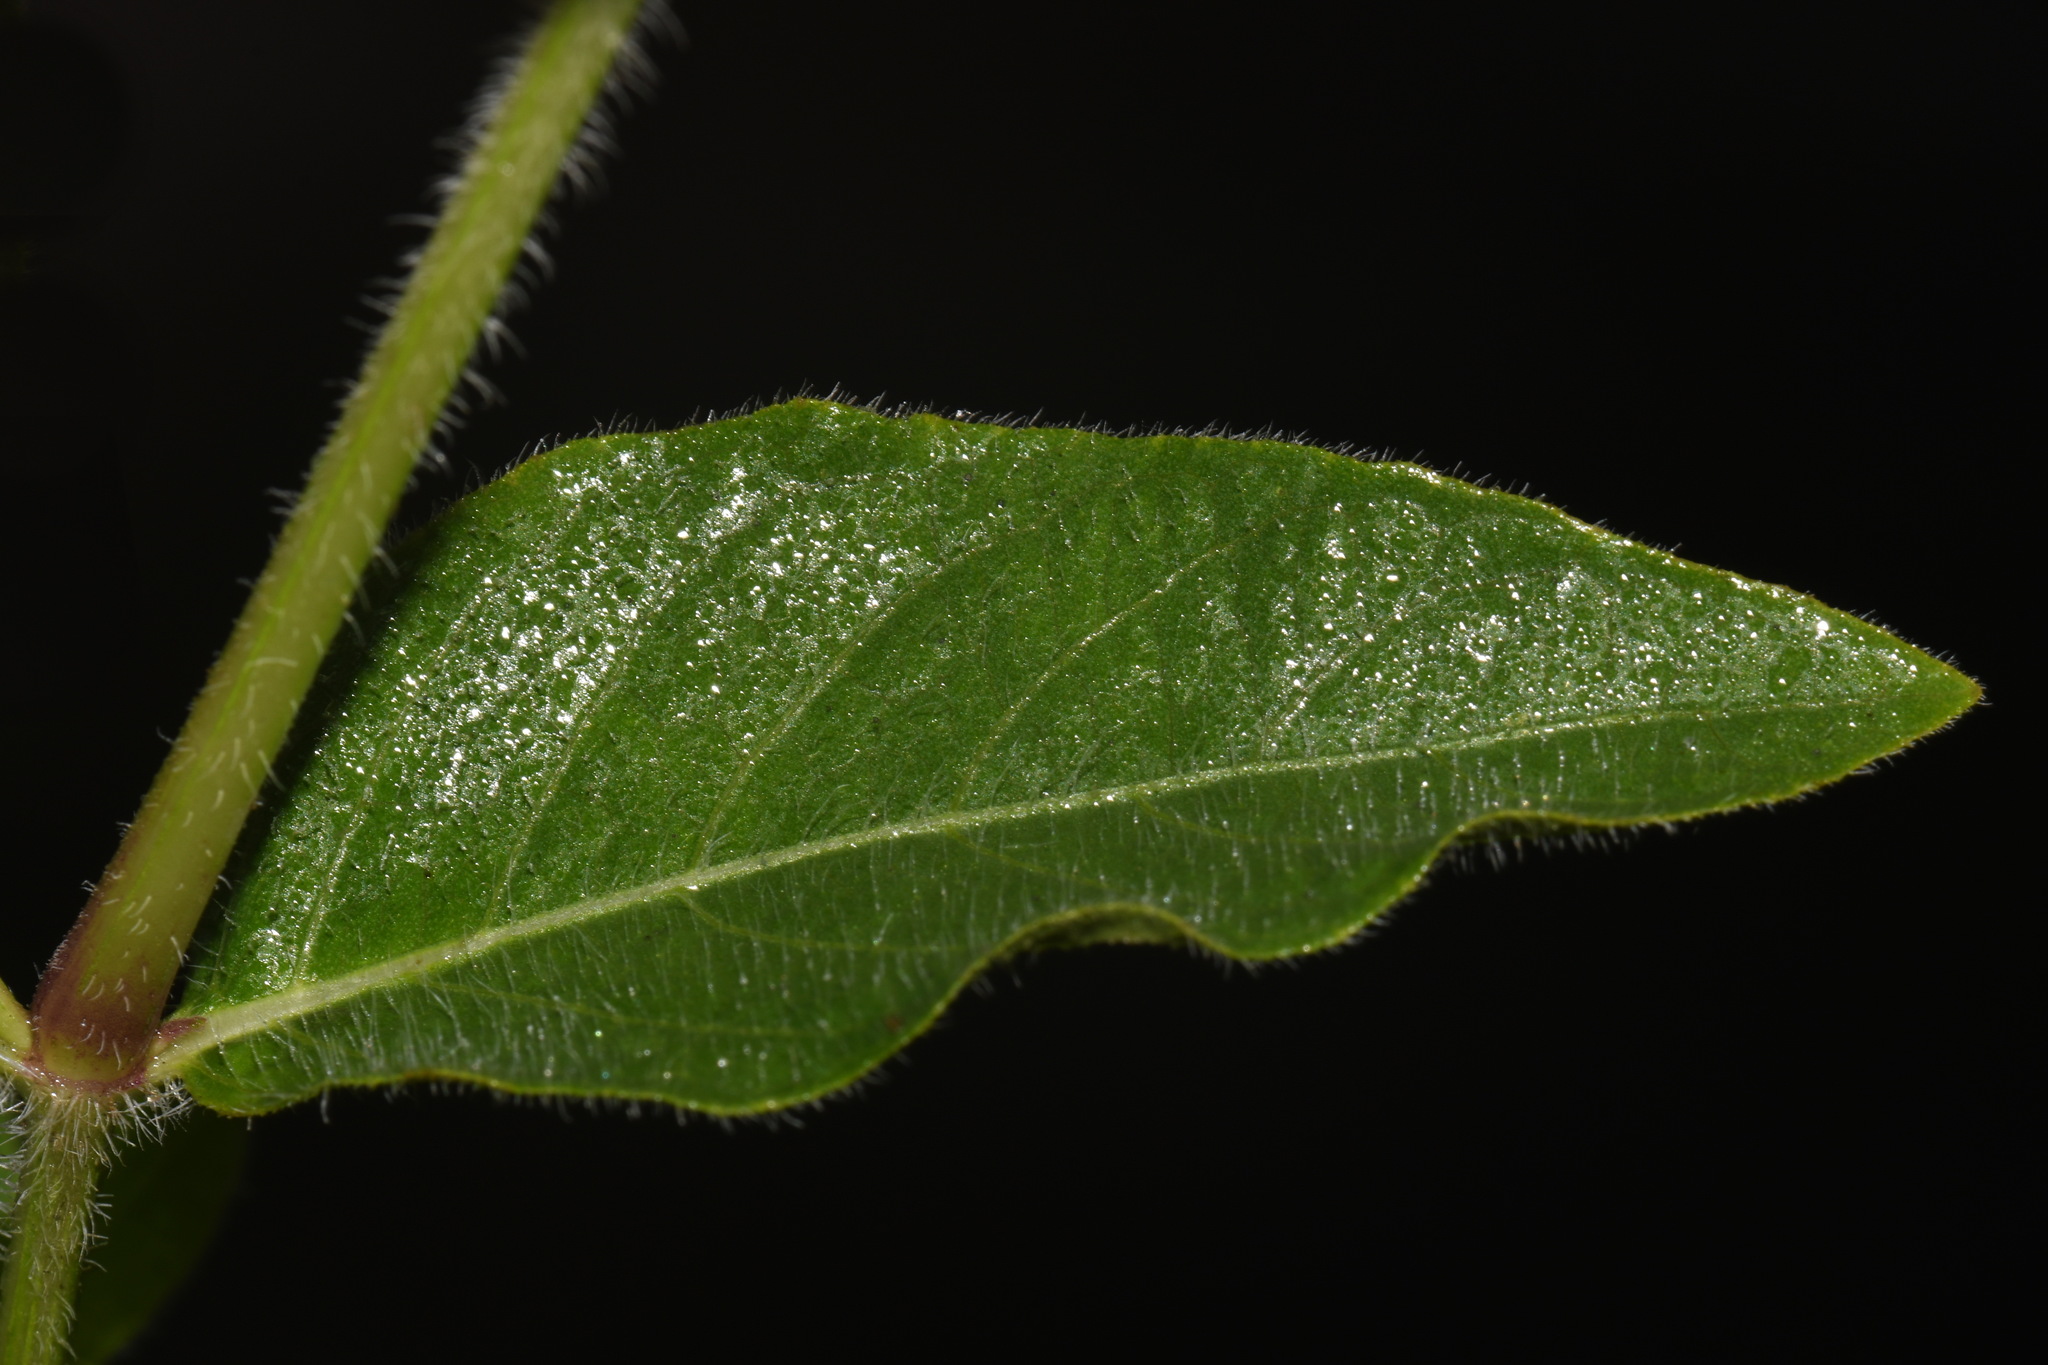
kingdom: Plantae
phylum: Tracheophyta
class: Magnoliopsida
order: Lamiales
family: Acanthaceae
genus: Ruellia
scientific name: Ruellia humilis
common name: Fringe-leaf ruellia
